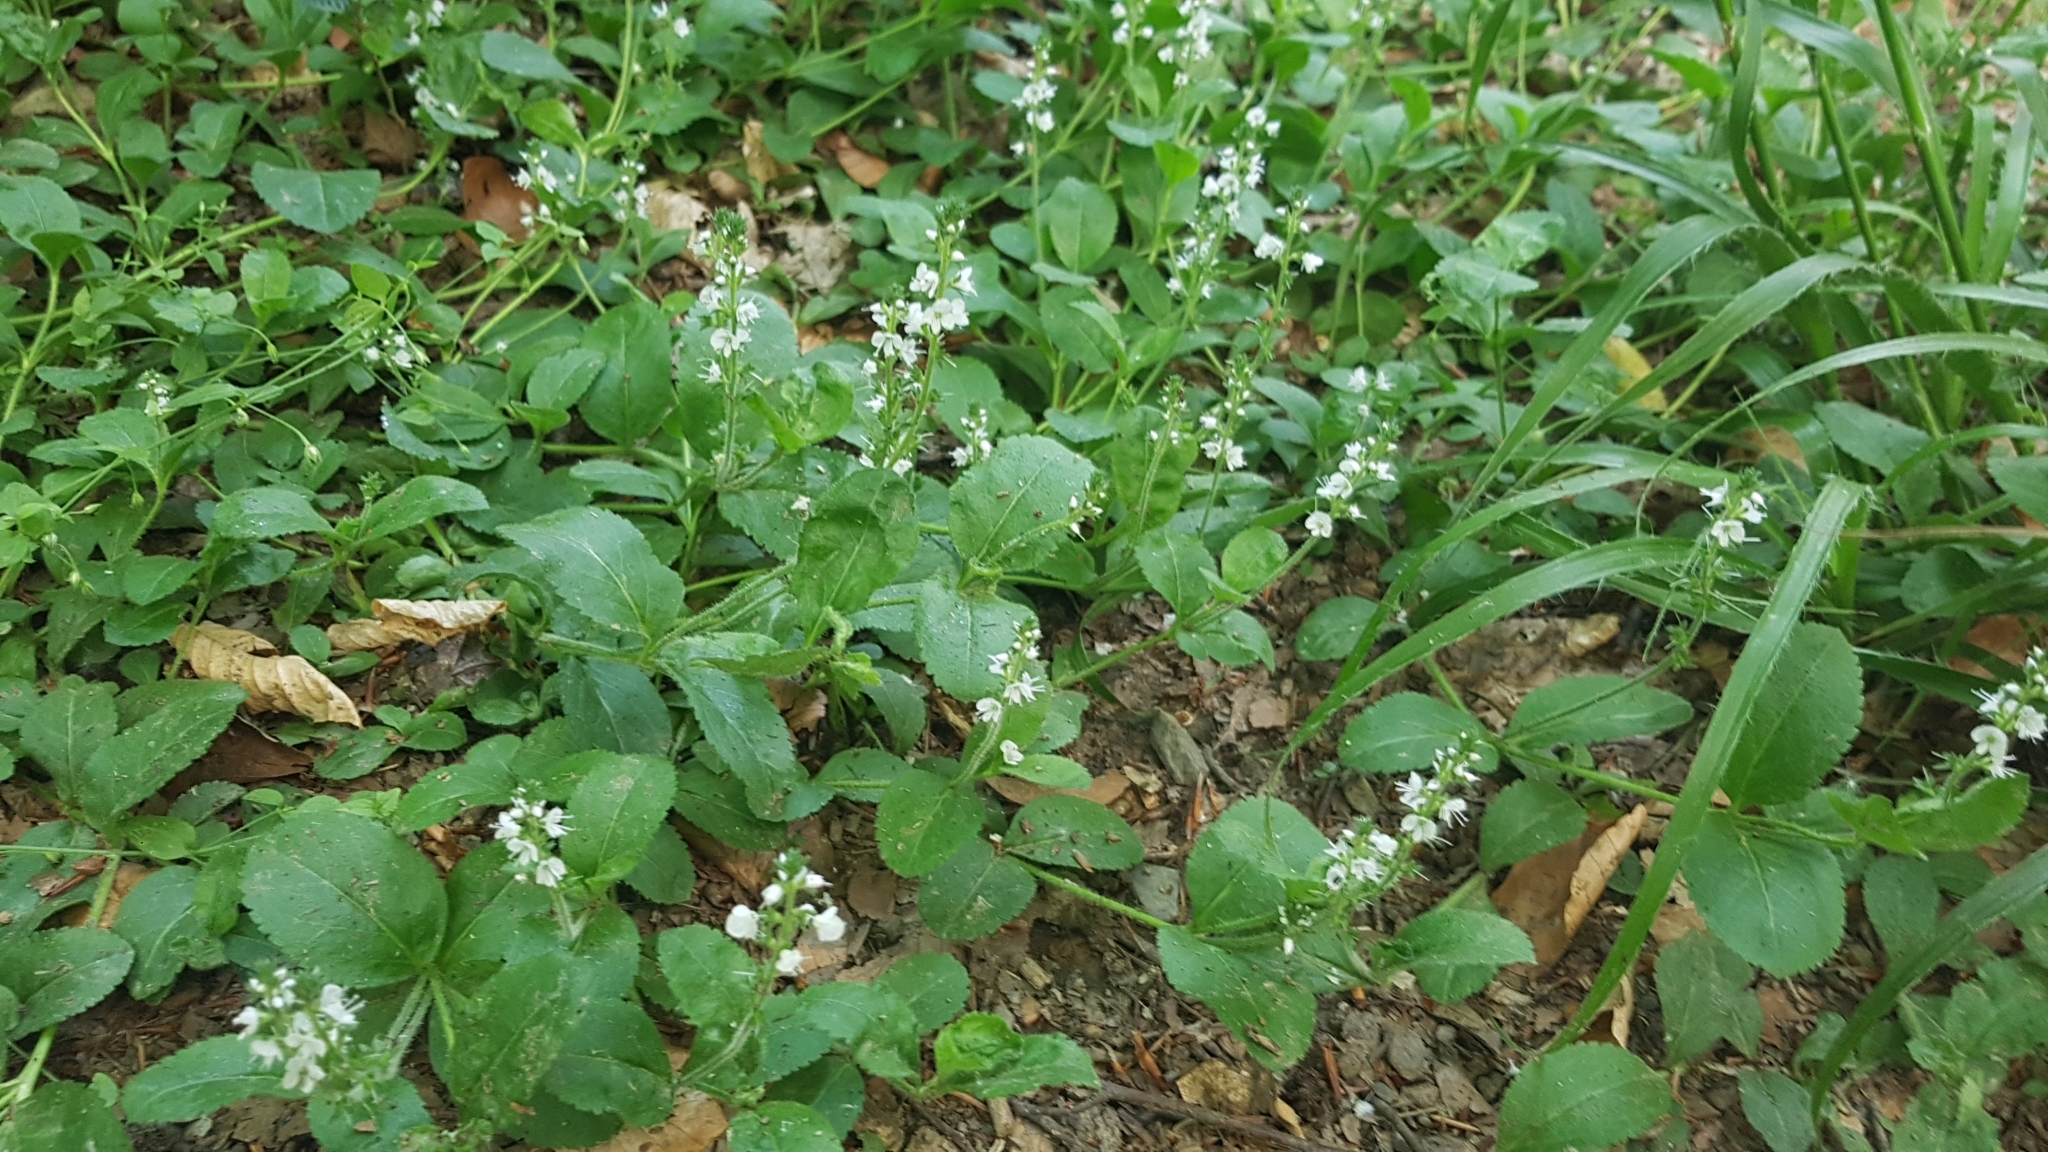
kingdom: Plantae
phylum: Tracheophyta
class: Magnoliopsida
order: Lamiales
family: Plantaginaceae
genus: Veronica
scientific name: Veronica officinalis
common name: Common speedwell
